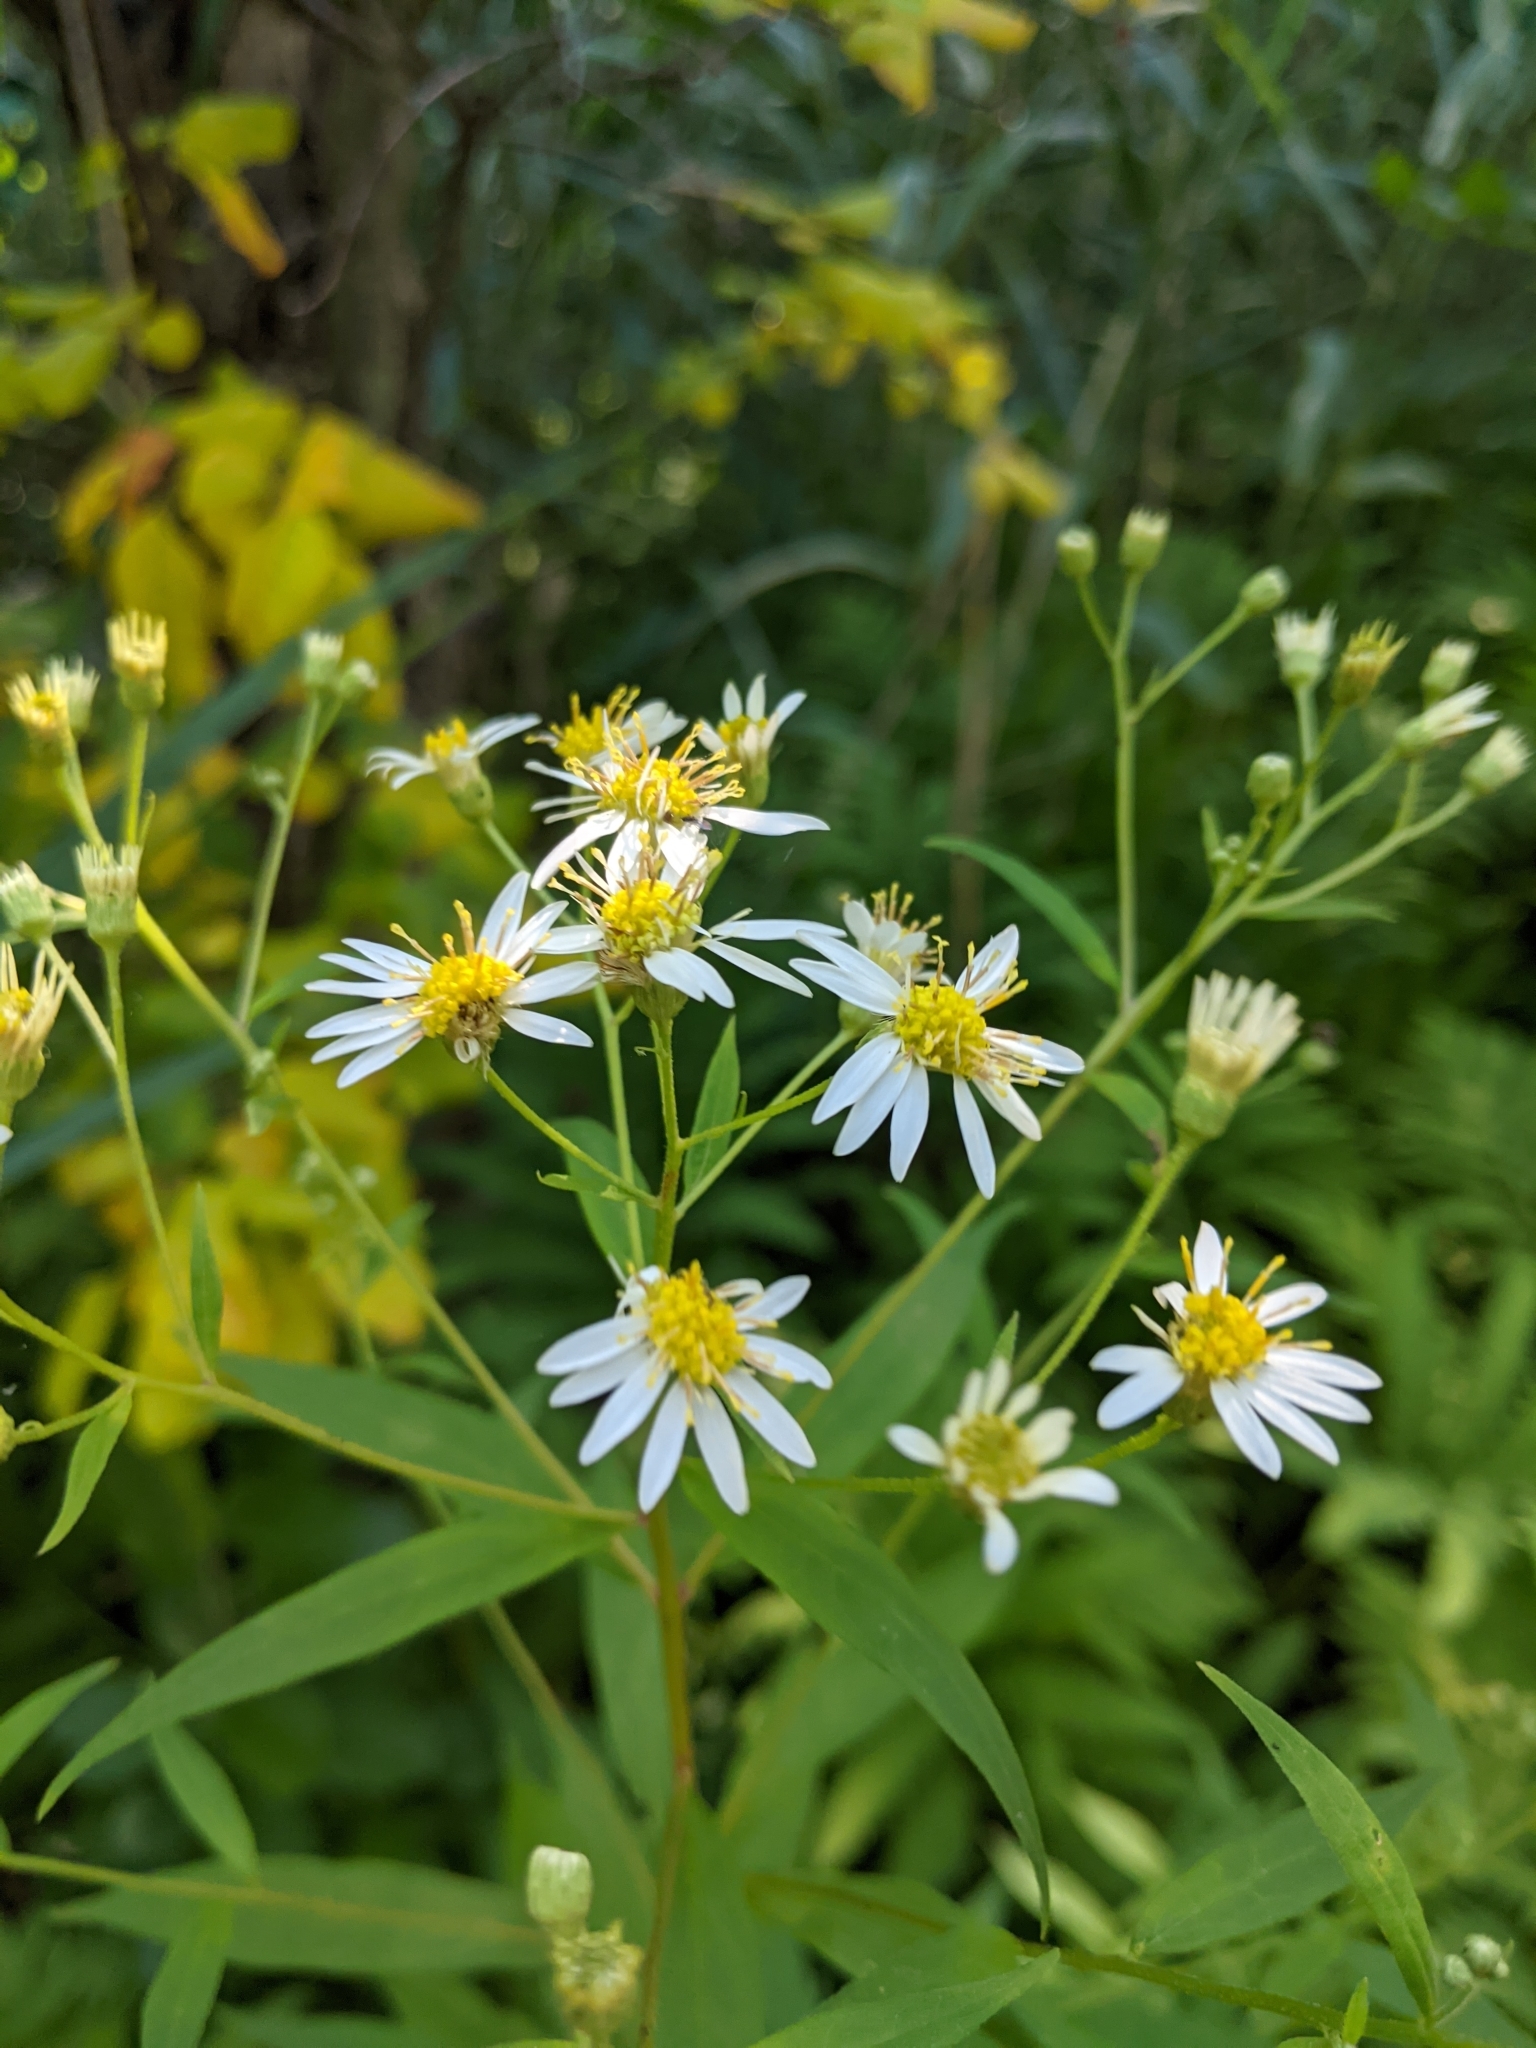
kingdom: Plantae
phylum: Tracheophyta
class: Magnoliopsida
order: Asterales
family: Asteraceae
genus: Doellingeria
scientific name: Doellingeria umbellata
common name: Flat-top white aster
